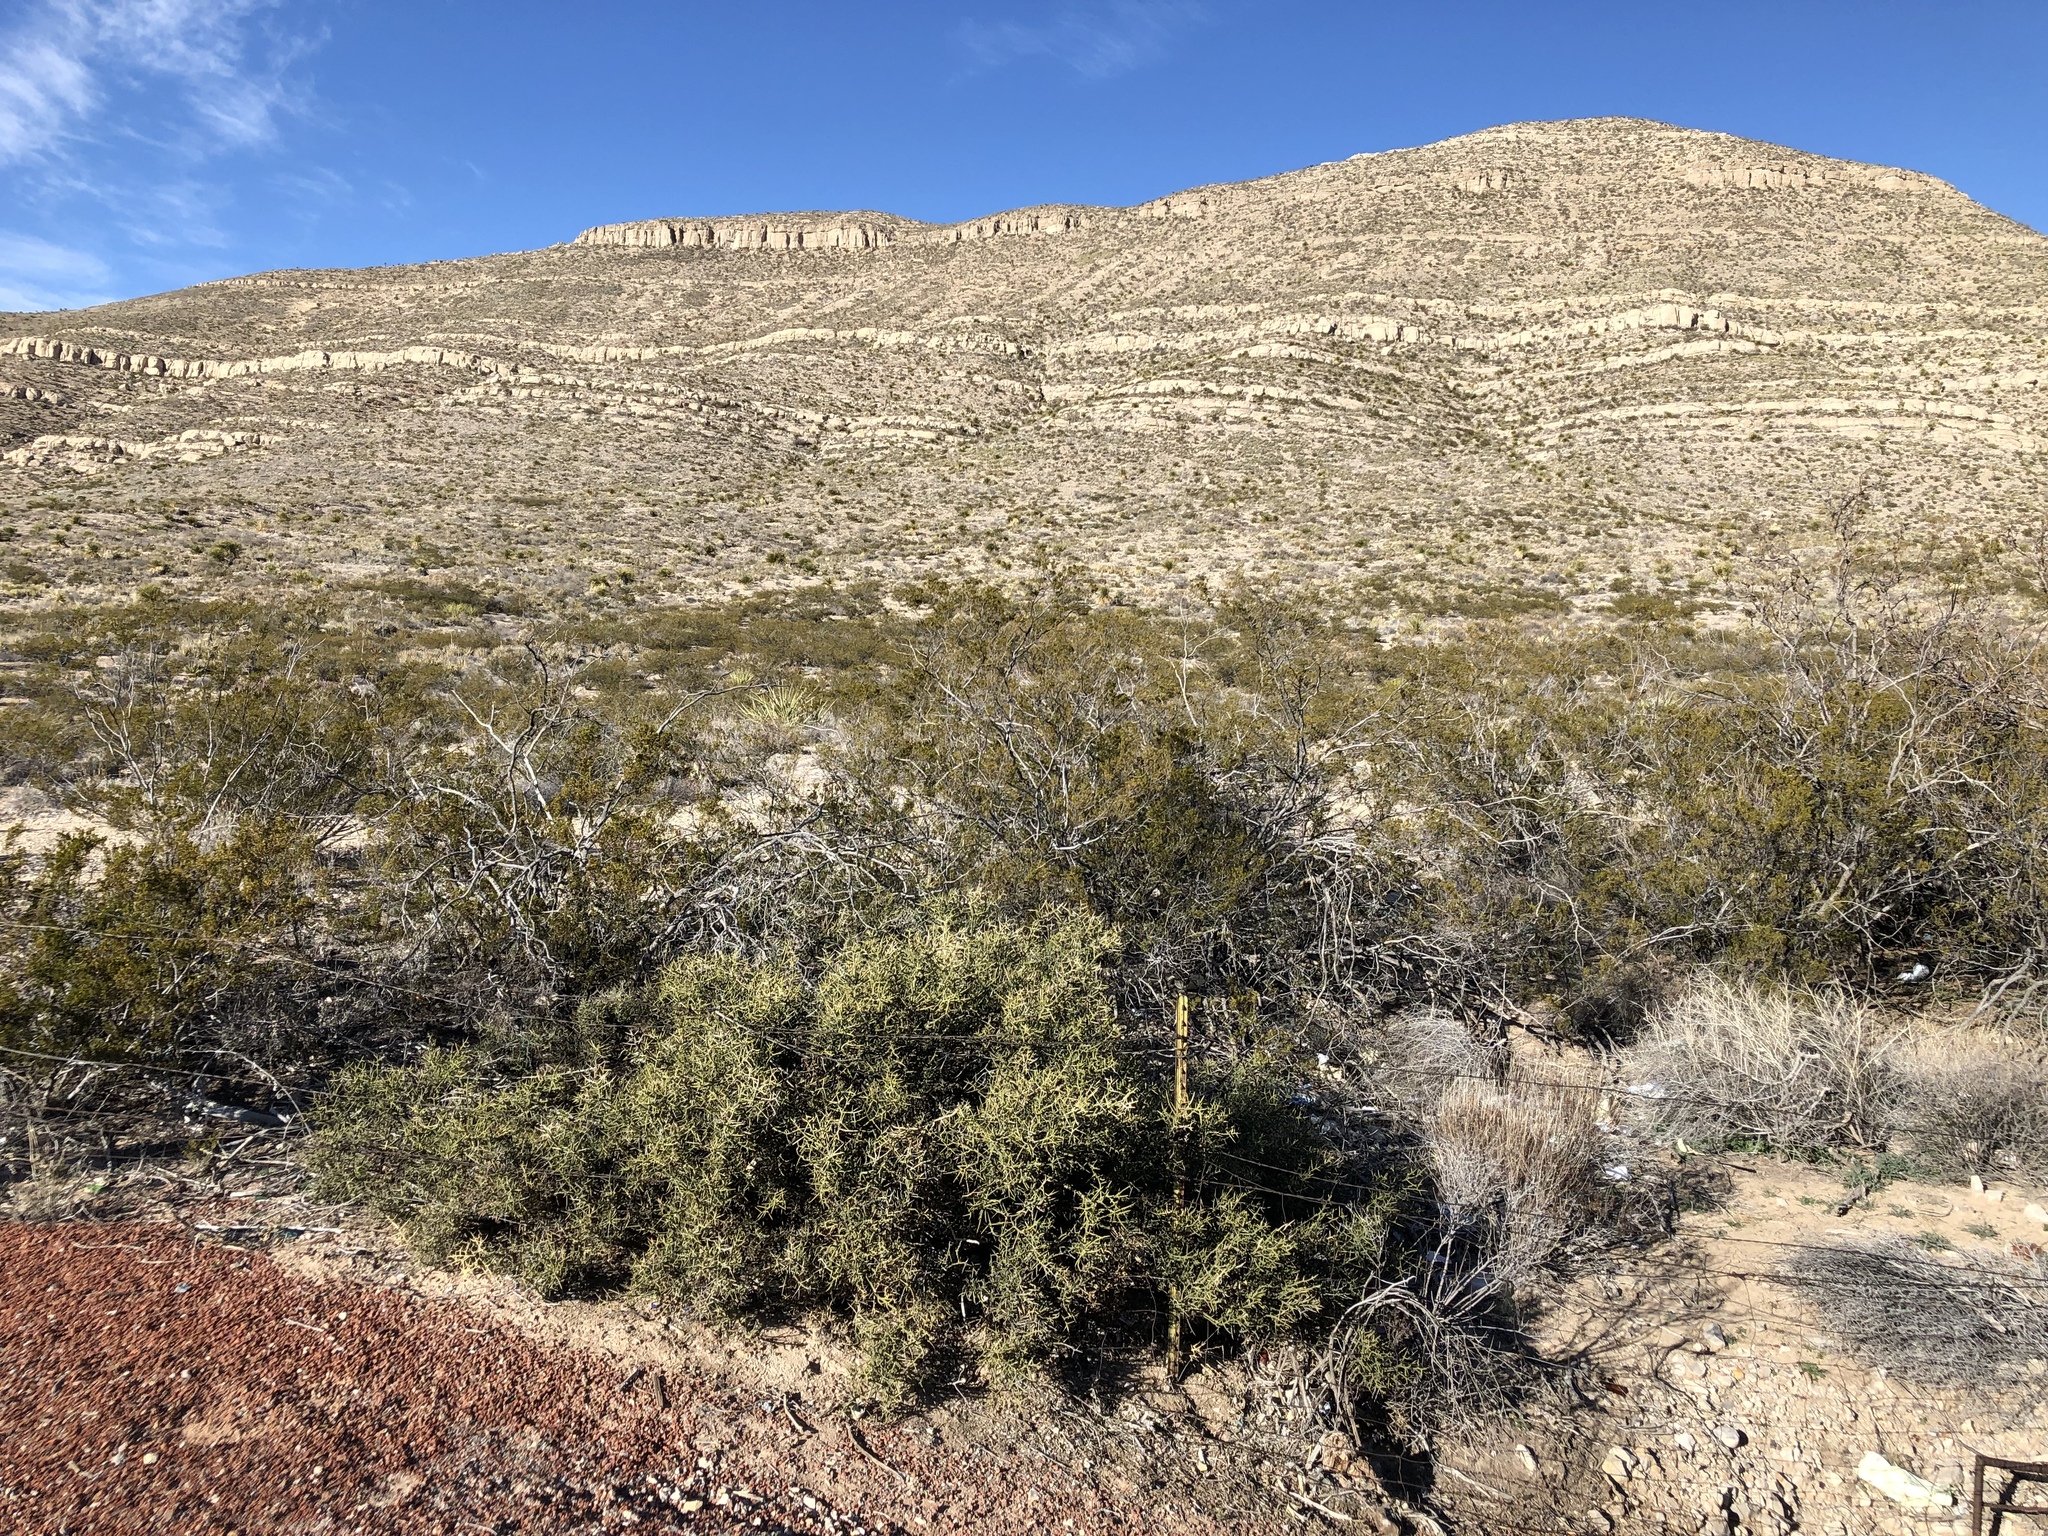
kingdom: Plantae
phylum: Tracheophyta
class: Magnoliopsida
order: Brassicales
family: Koeberliniaceae
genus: Koeberlinia
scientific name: Koeberlinia spinosa
